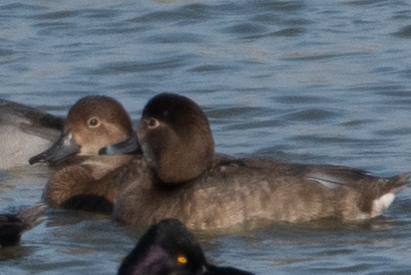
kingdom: Animalia
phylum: Chordata
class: Aves
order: Anseriformes
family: Anatidae
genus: Aythya
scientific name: Aythya americana
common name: Redhead
